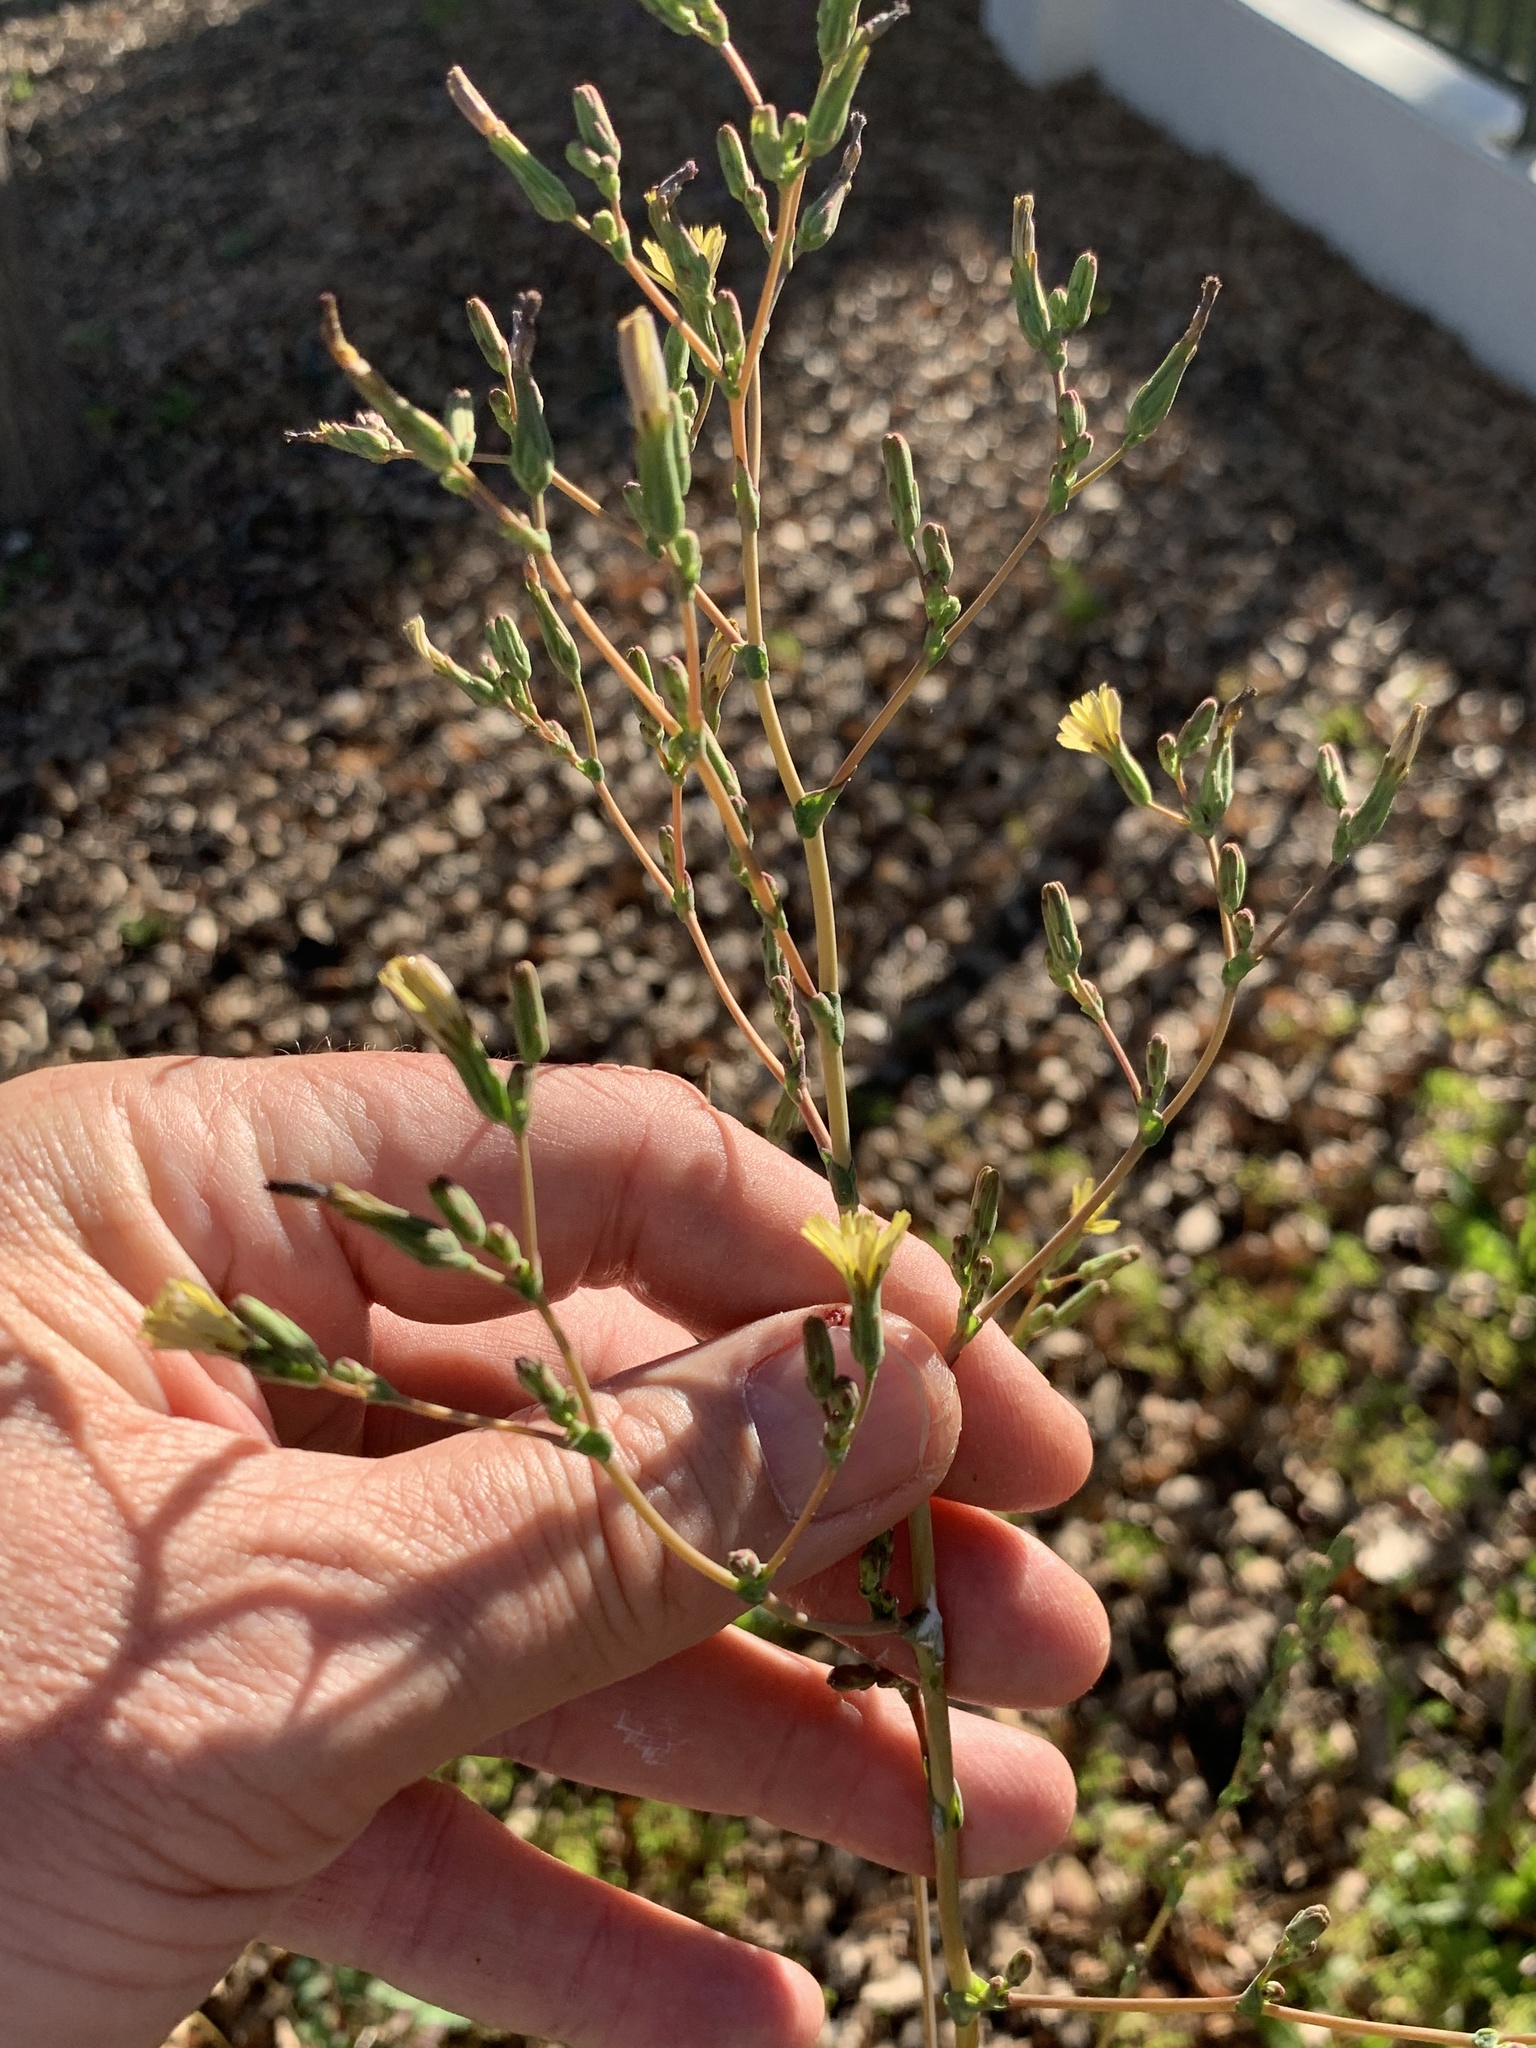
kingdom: Plantae
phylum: Tracheophyta
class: Magnoliopsida
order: Asterales
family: Asteraceae
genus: Lactuca
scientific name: Lactuca serriola
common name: Prickly lettuce
